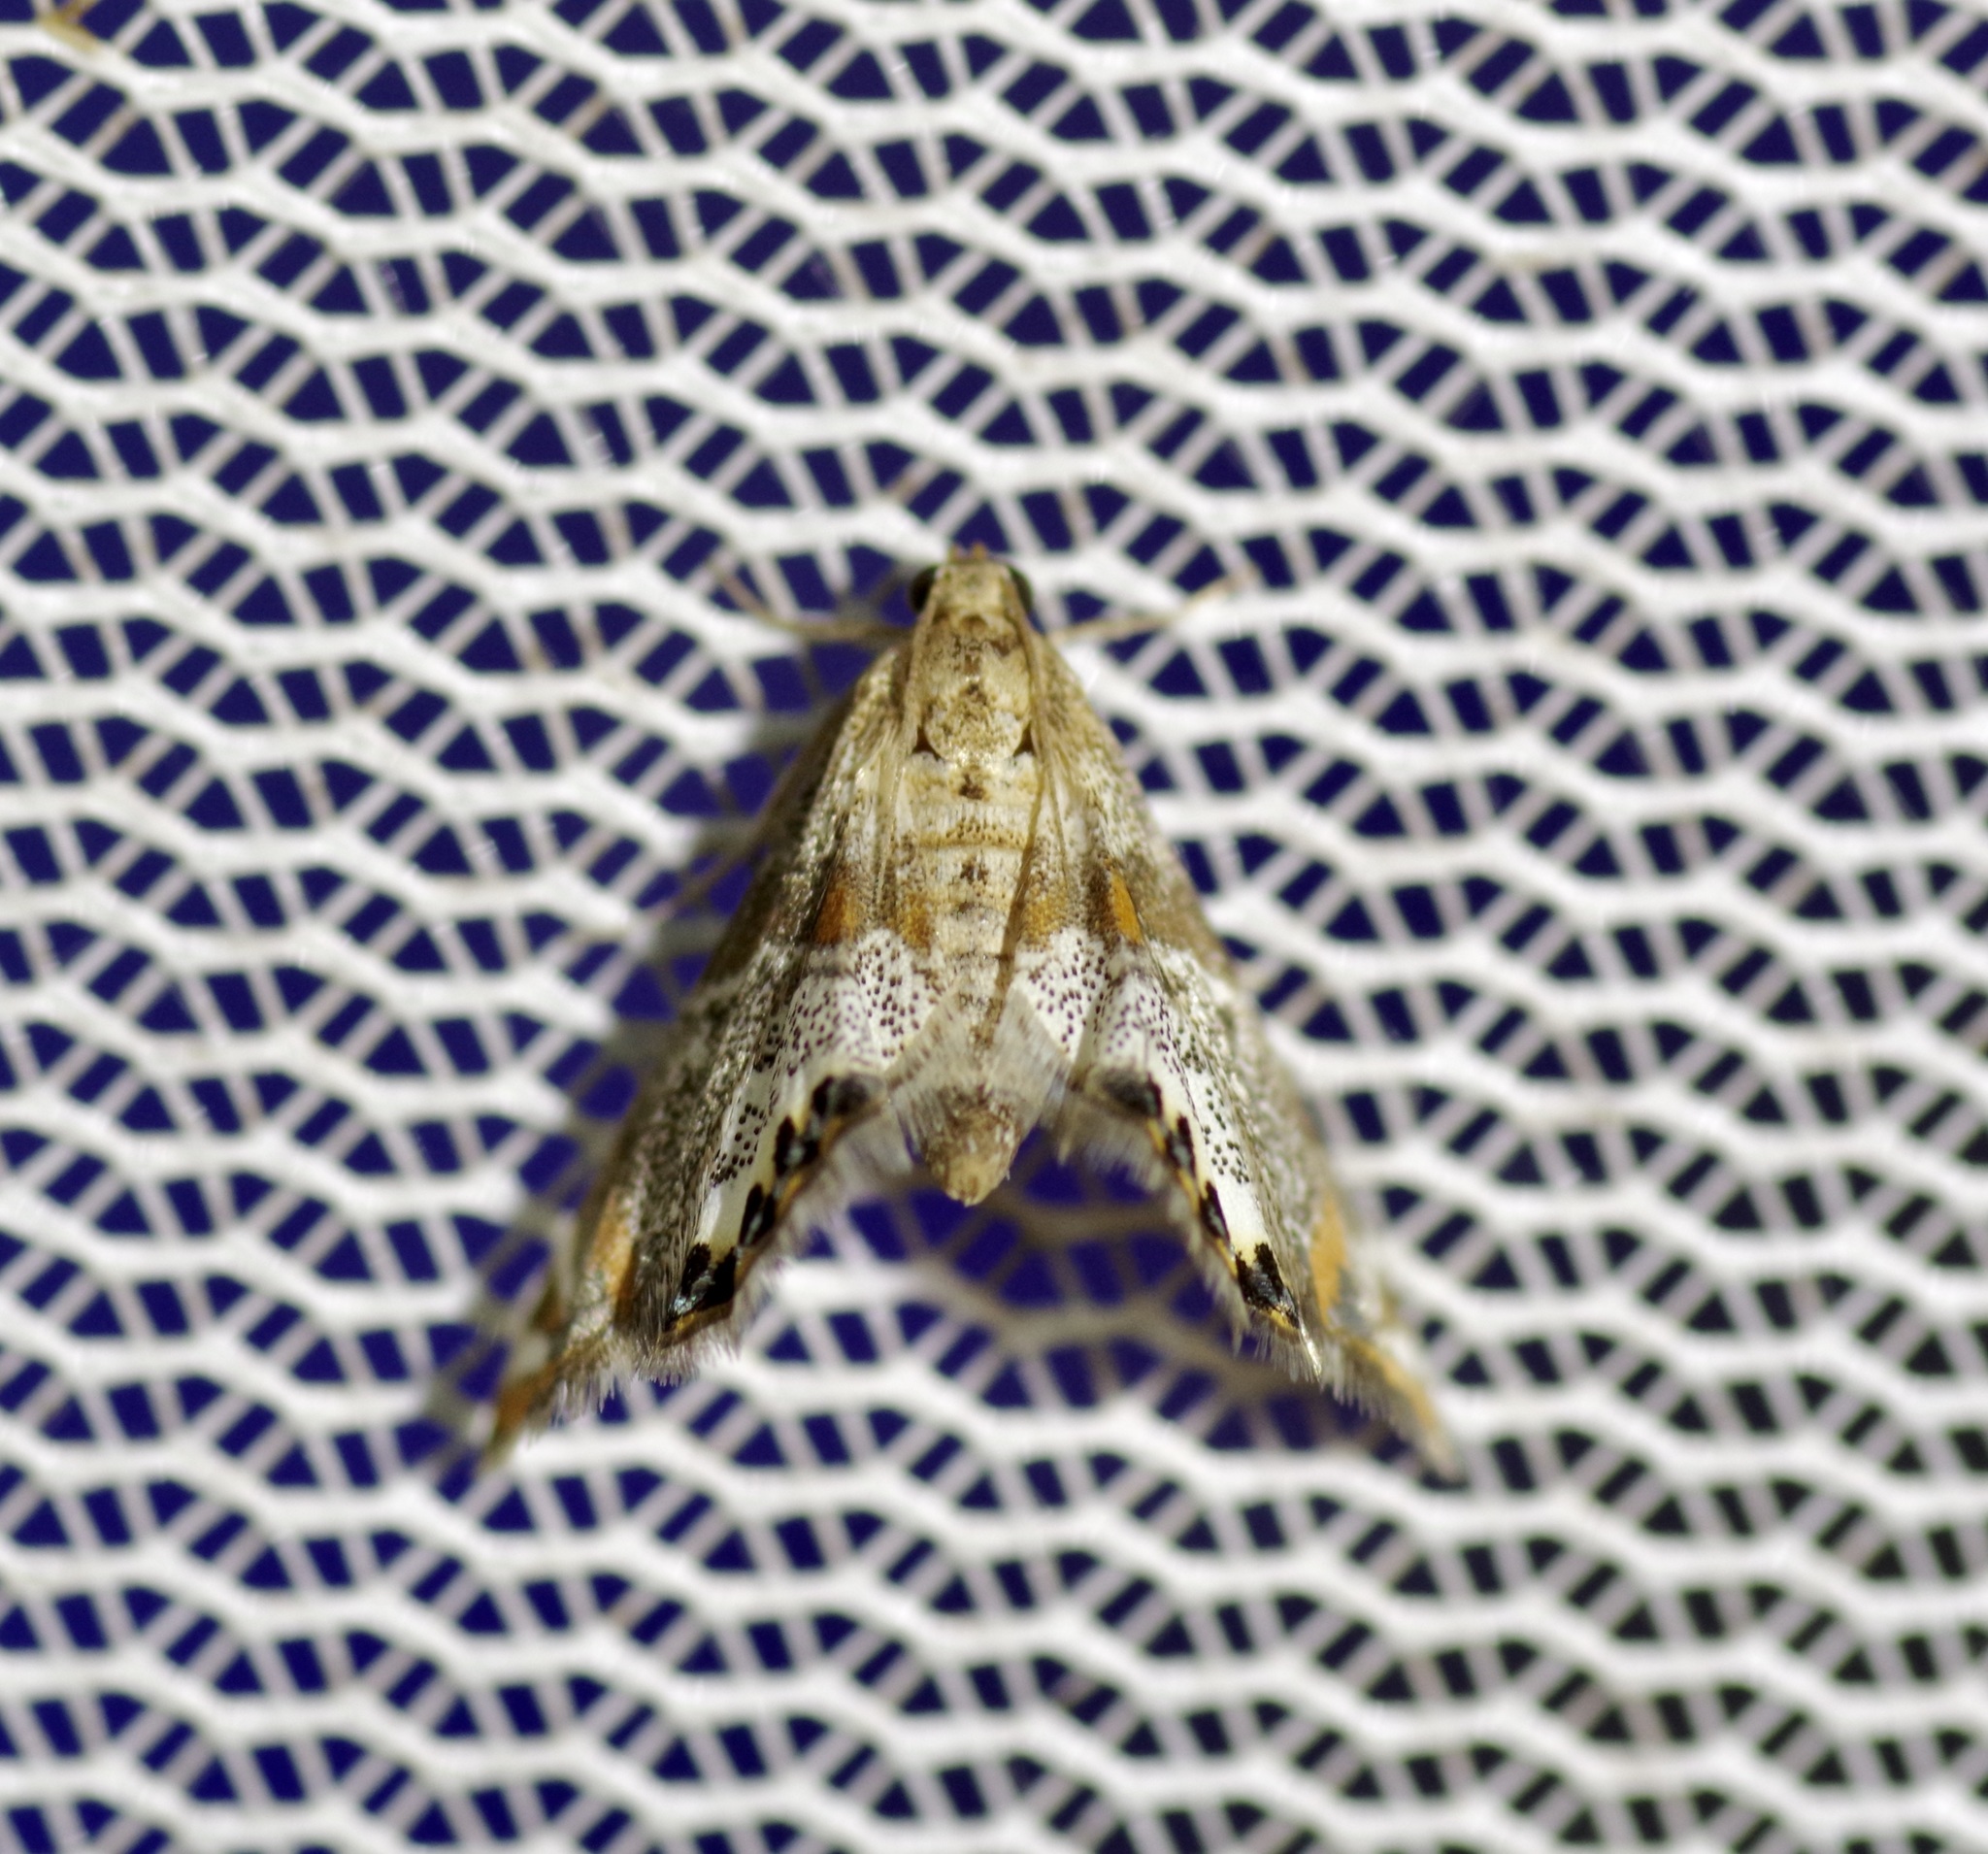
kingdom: Animalia
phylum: Arthropoda
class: Insecta
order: Lepidoptera
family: Crambidae
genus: Petrophila
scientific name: Petrophila jaliscalis
